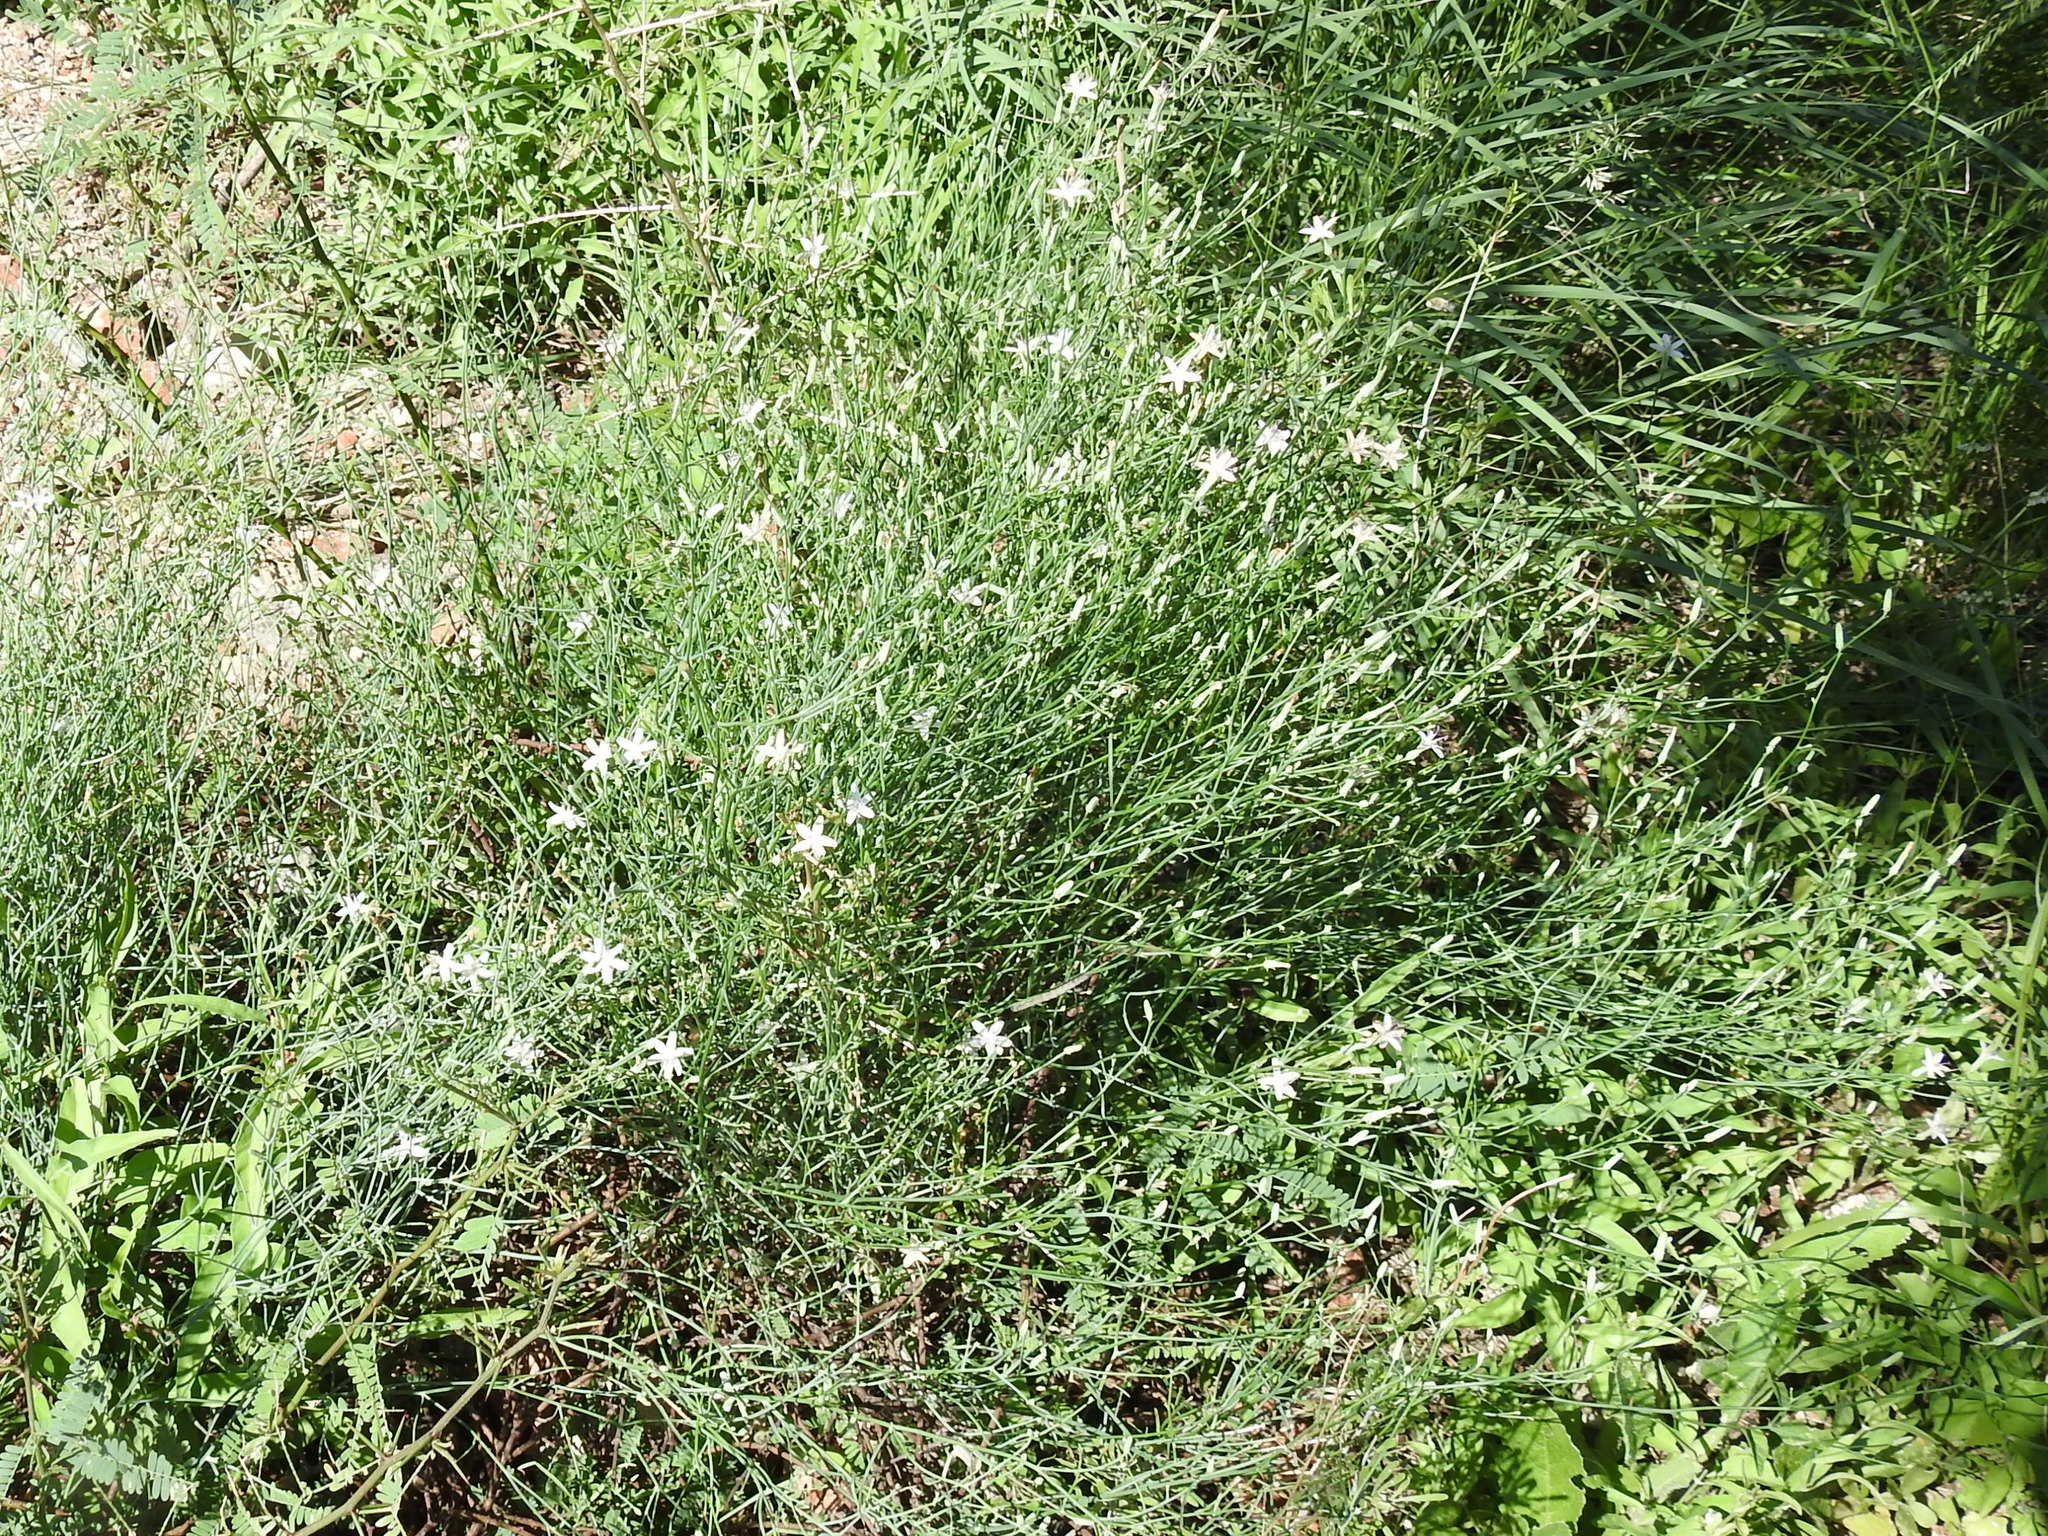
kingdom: Plantae
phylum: Tracheophyta
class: Magnoliopsida
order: Asterales
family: Asteraceae
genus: Stephanomeria
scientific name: Stephanomeria pauciflora
